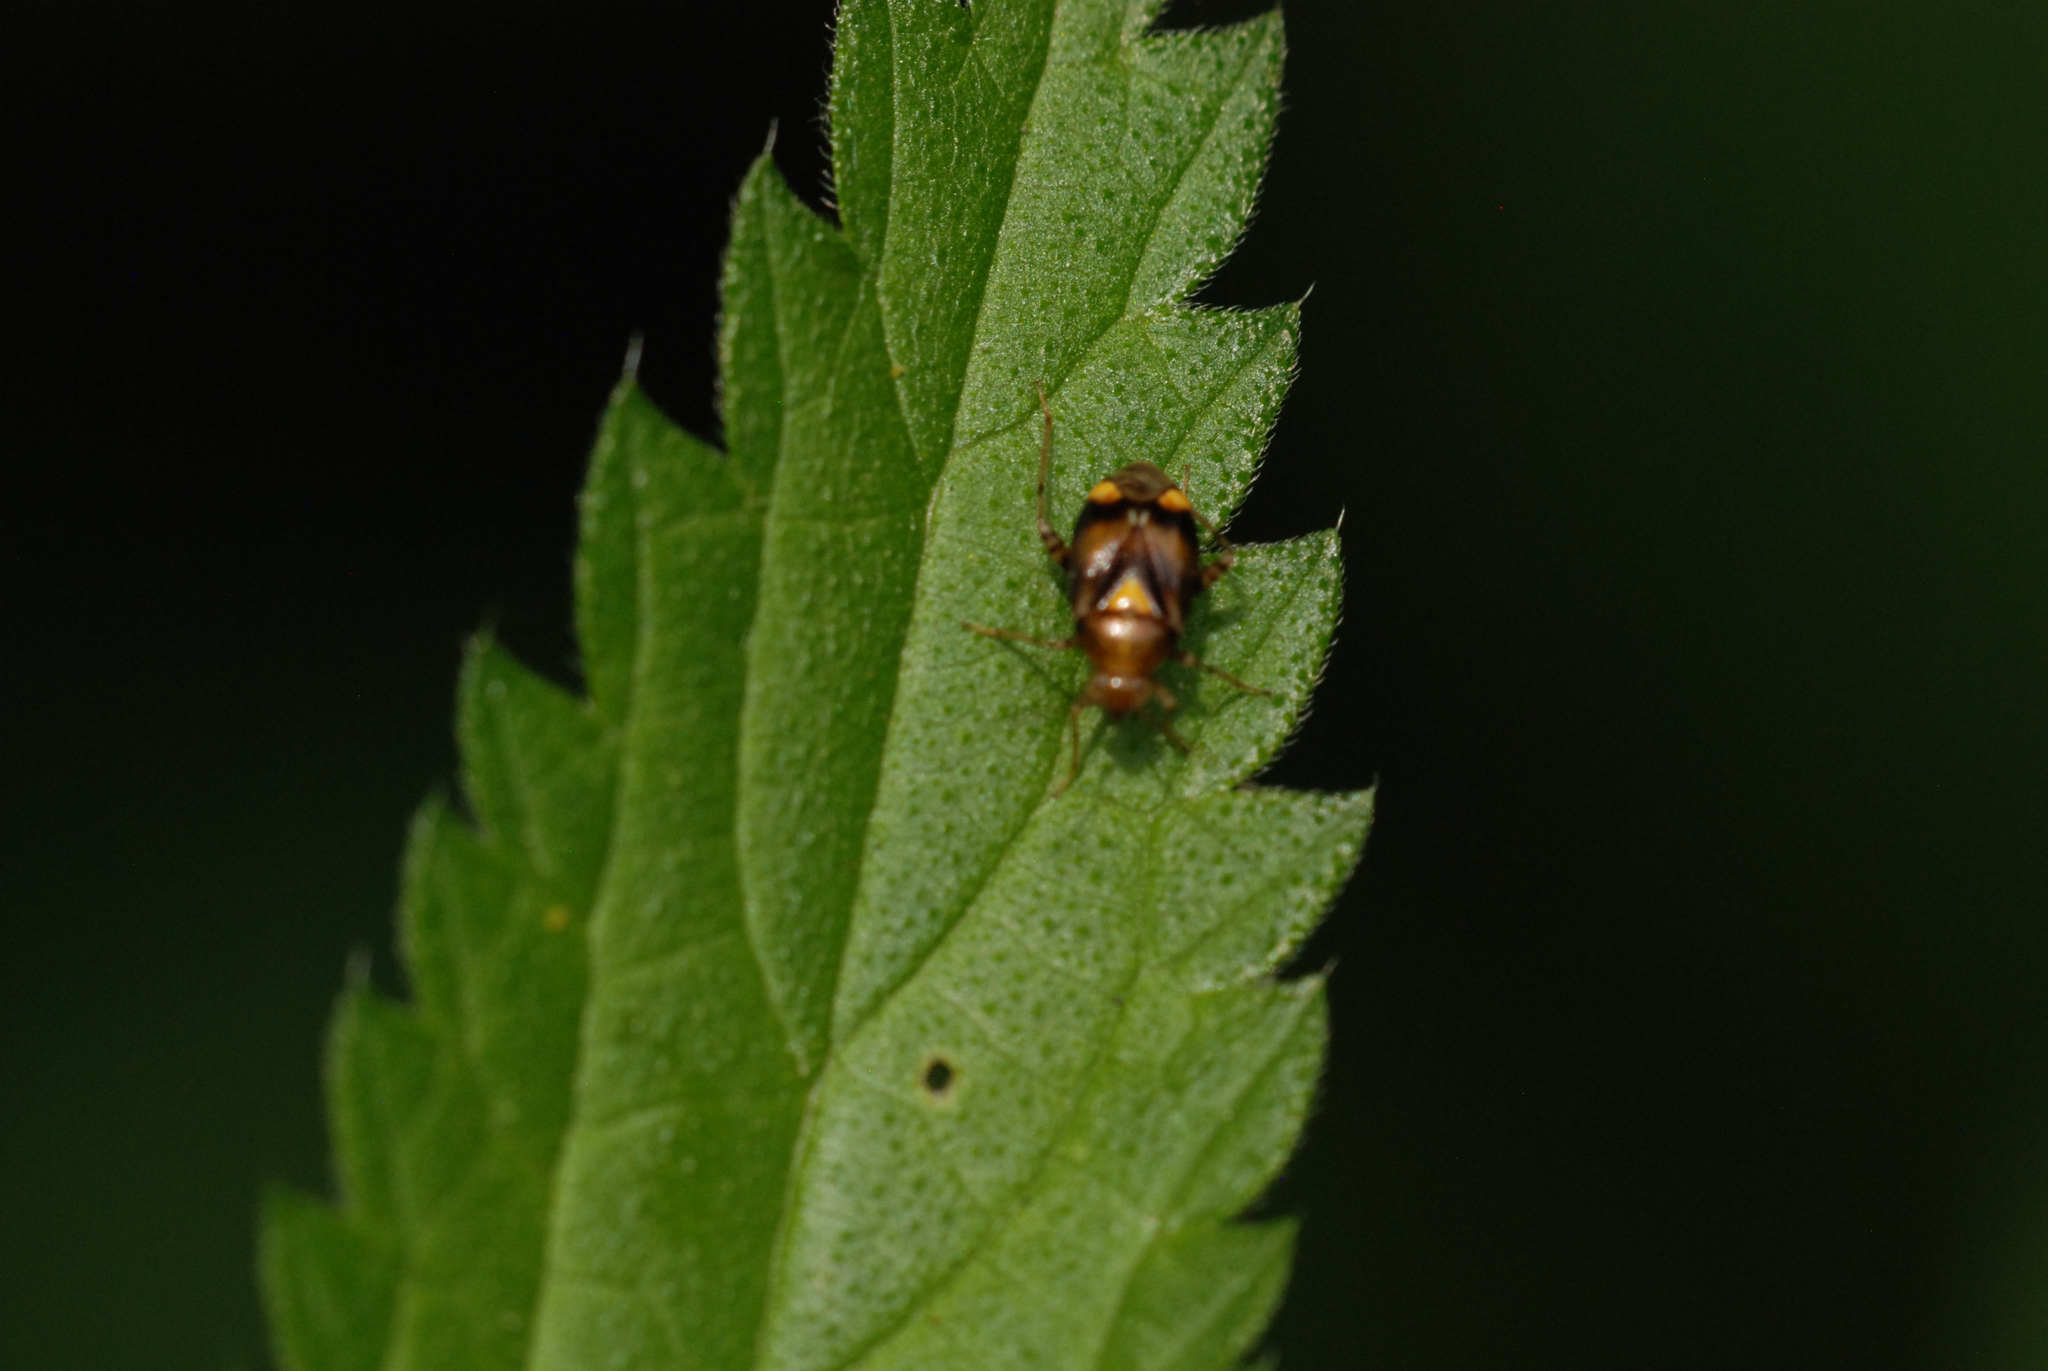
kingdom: Animalia
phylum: Arthropoda
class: Insecta
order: Hemiptera
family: Miridae
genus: Liocoris
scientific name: Liocoris tripustulatus
